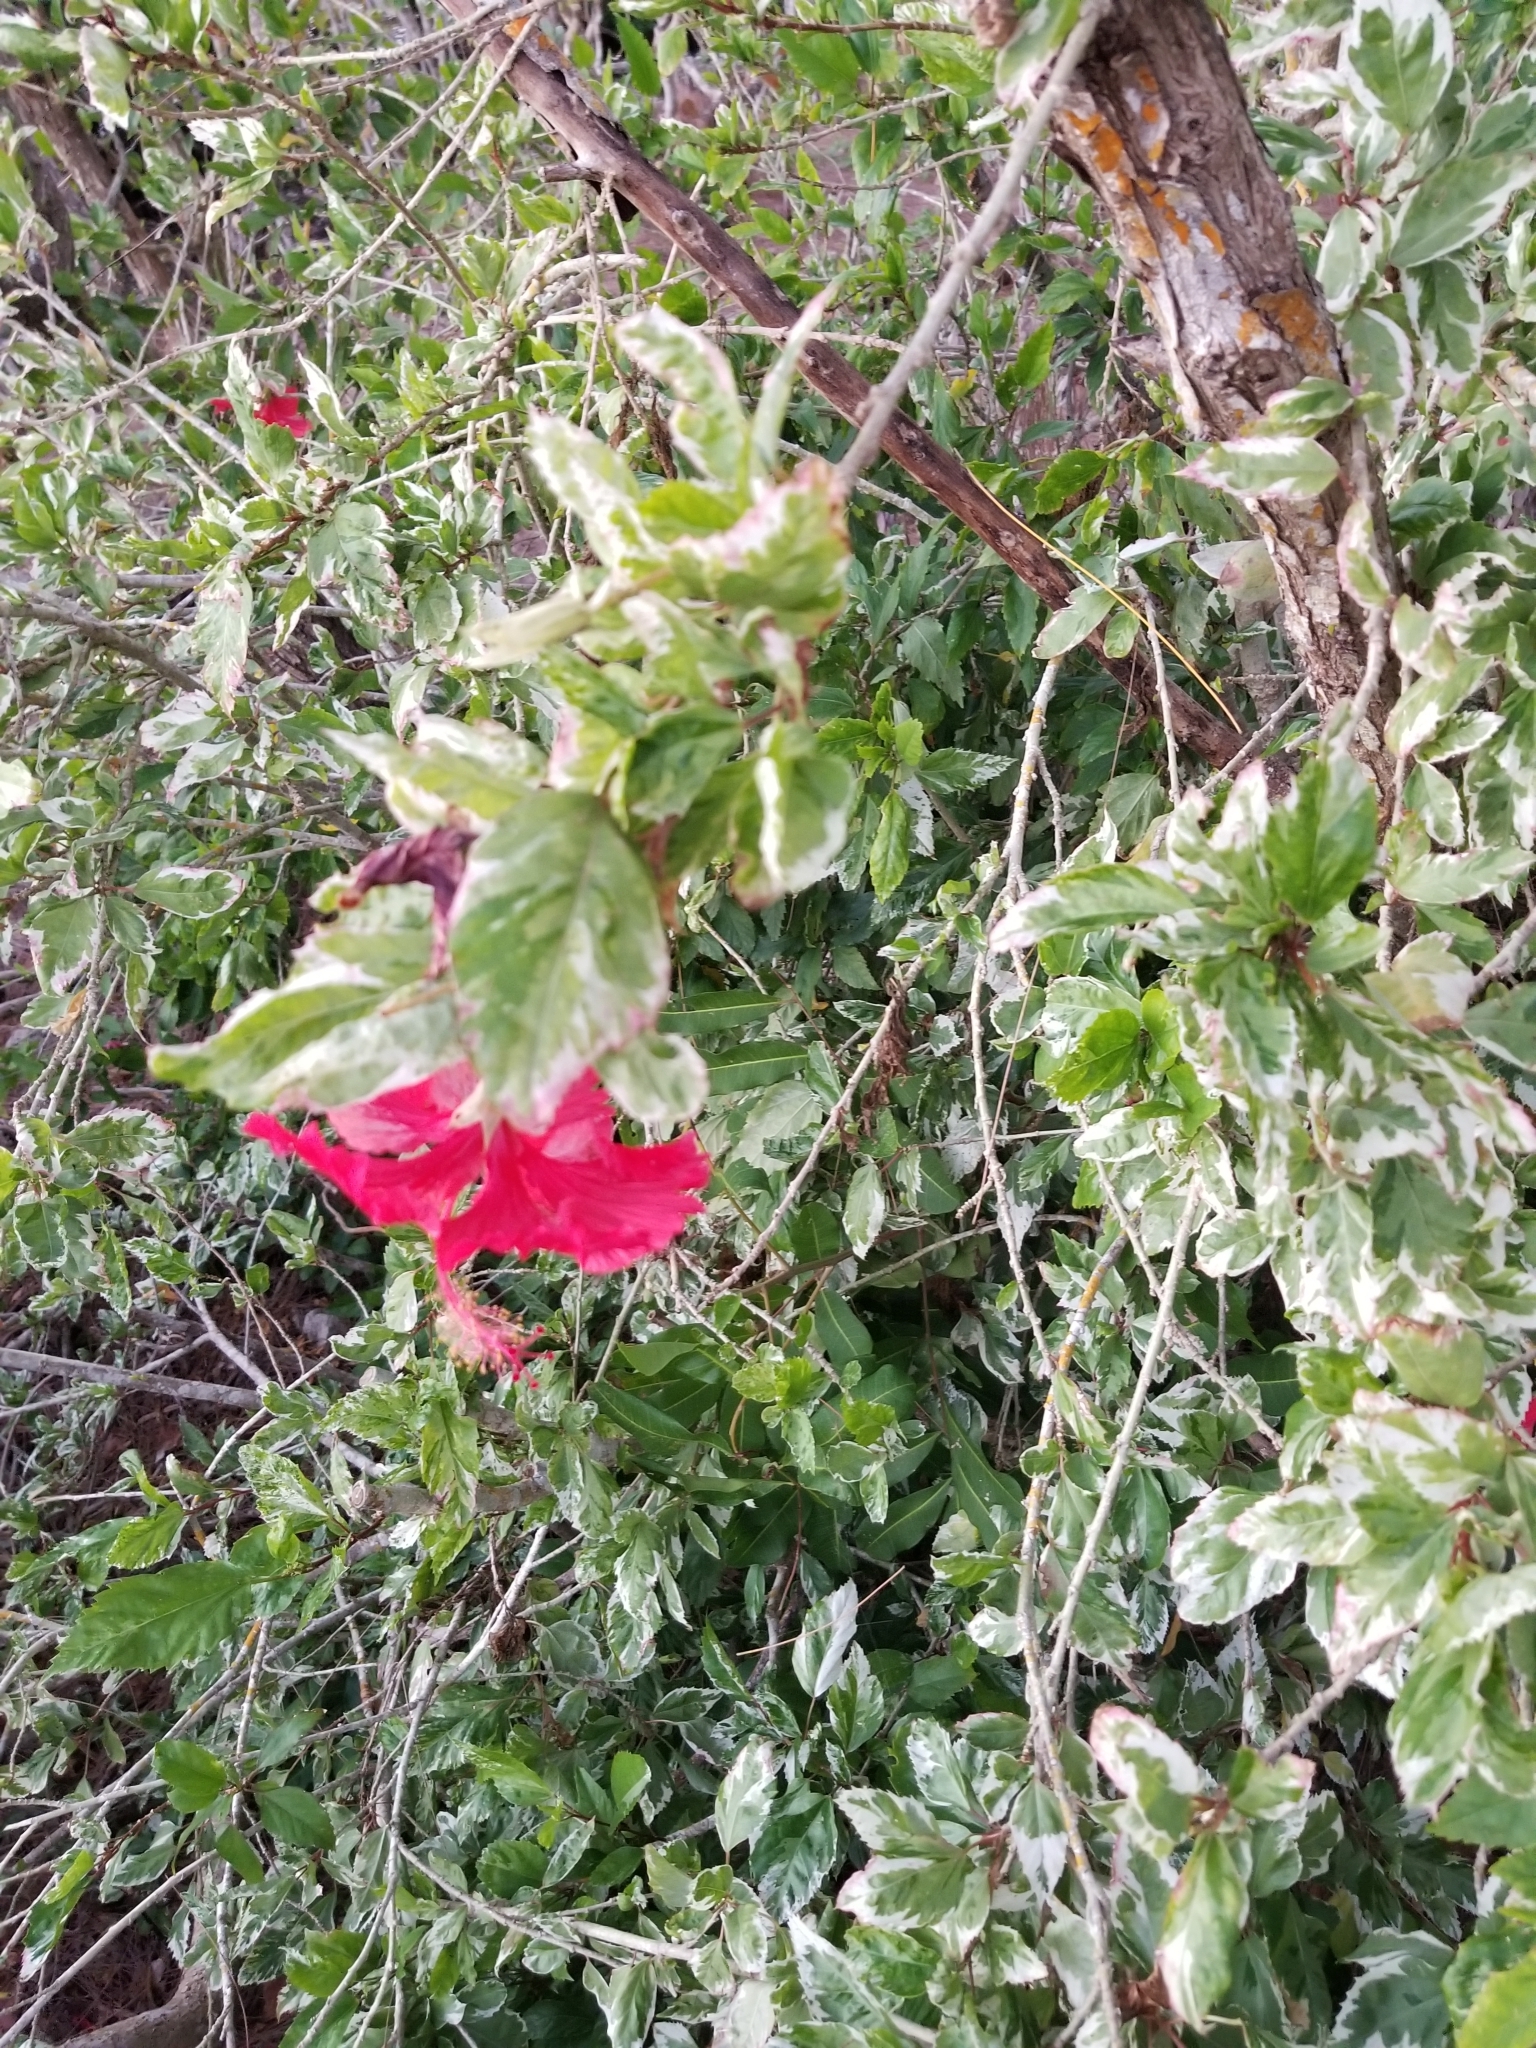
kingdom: Plantae
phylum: Tracheophyta
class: Magnoliopsida
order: Malvales
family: Malvaceae
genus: Hibiscus
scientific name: Hibiscus archeri
